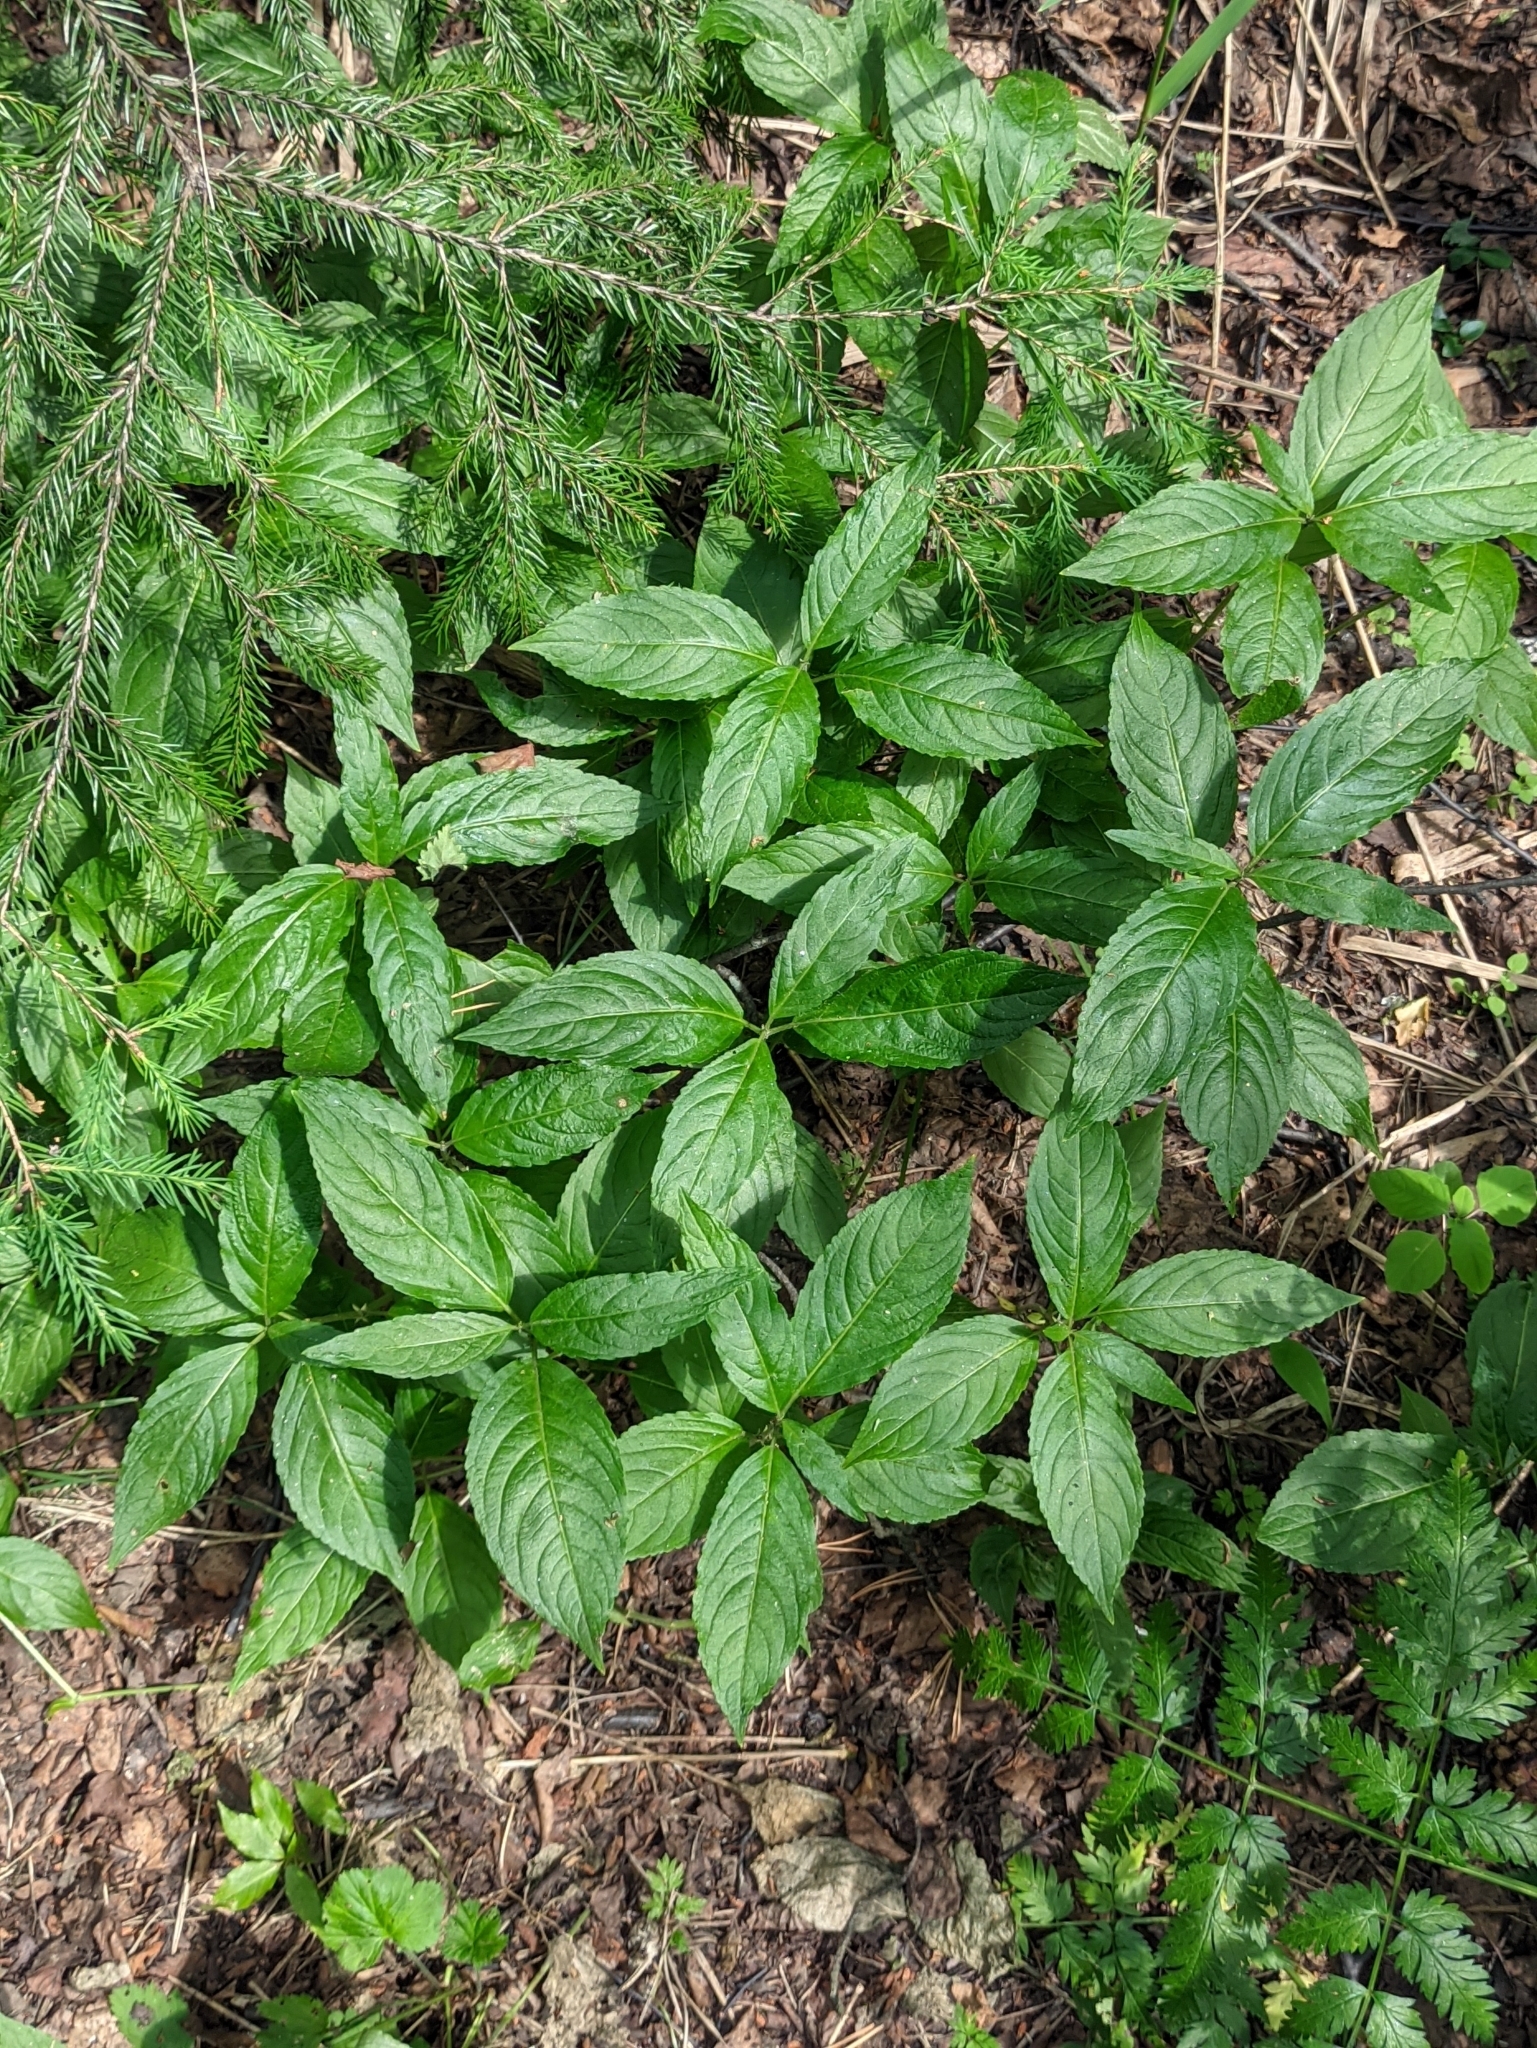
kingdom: Plantae
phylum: Tracheophyta
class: Magnoliopsida
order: Malpighiales
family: Euphorbiaceae
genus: Mercurialis
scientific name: Mercurialis perennis
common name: Dog mercury
